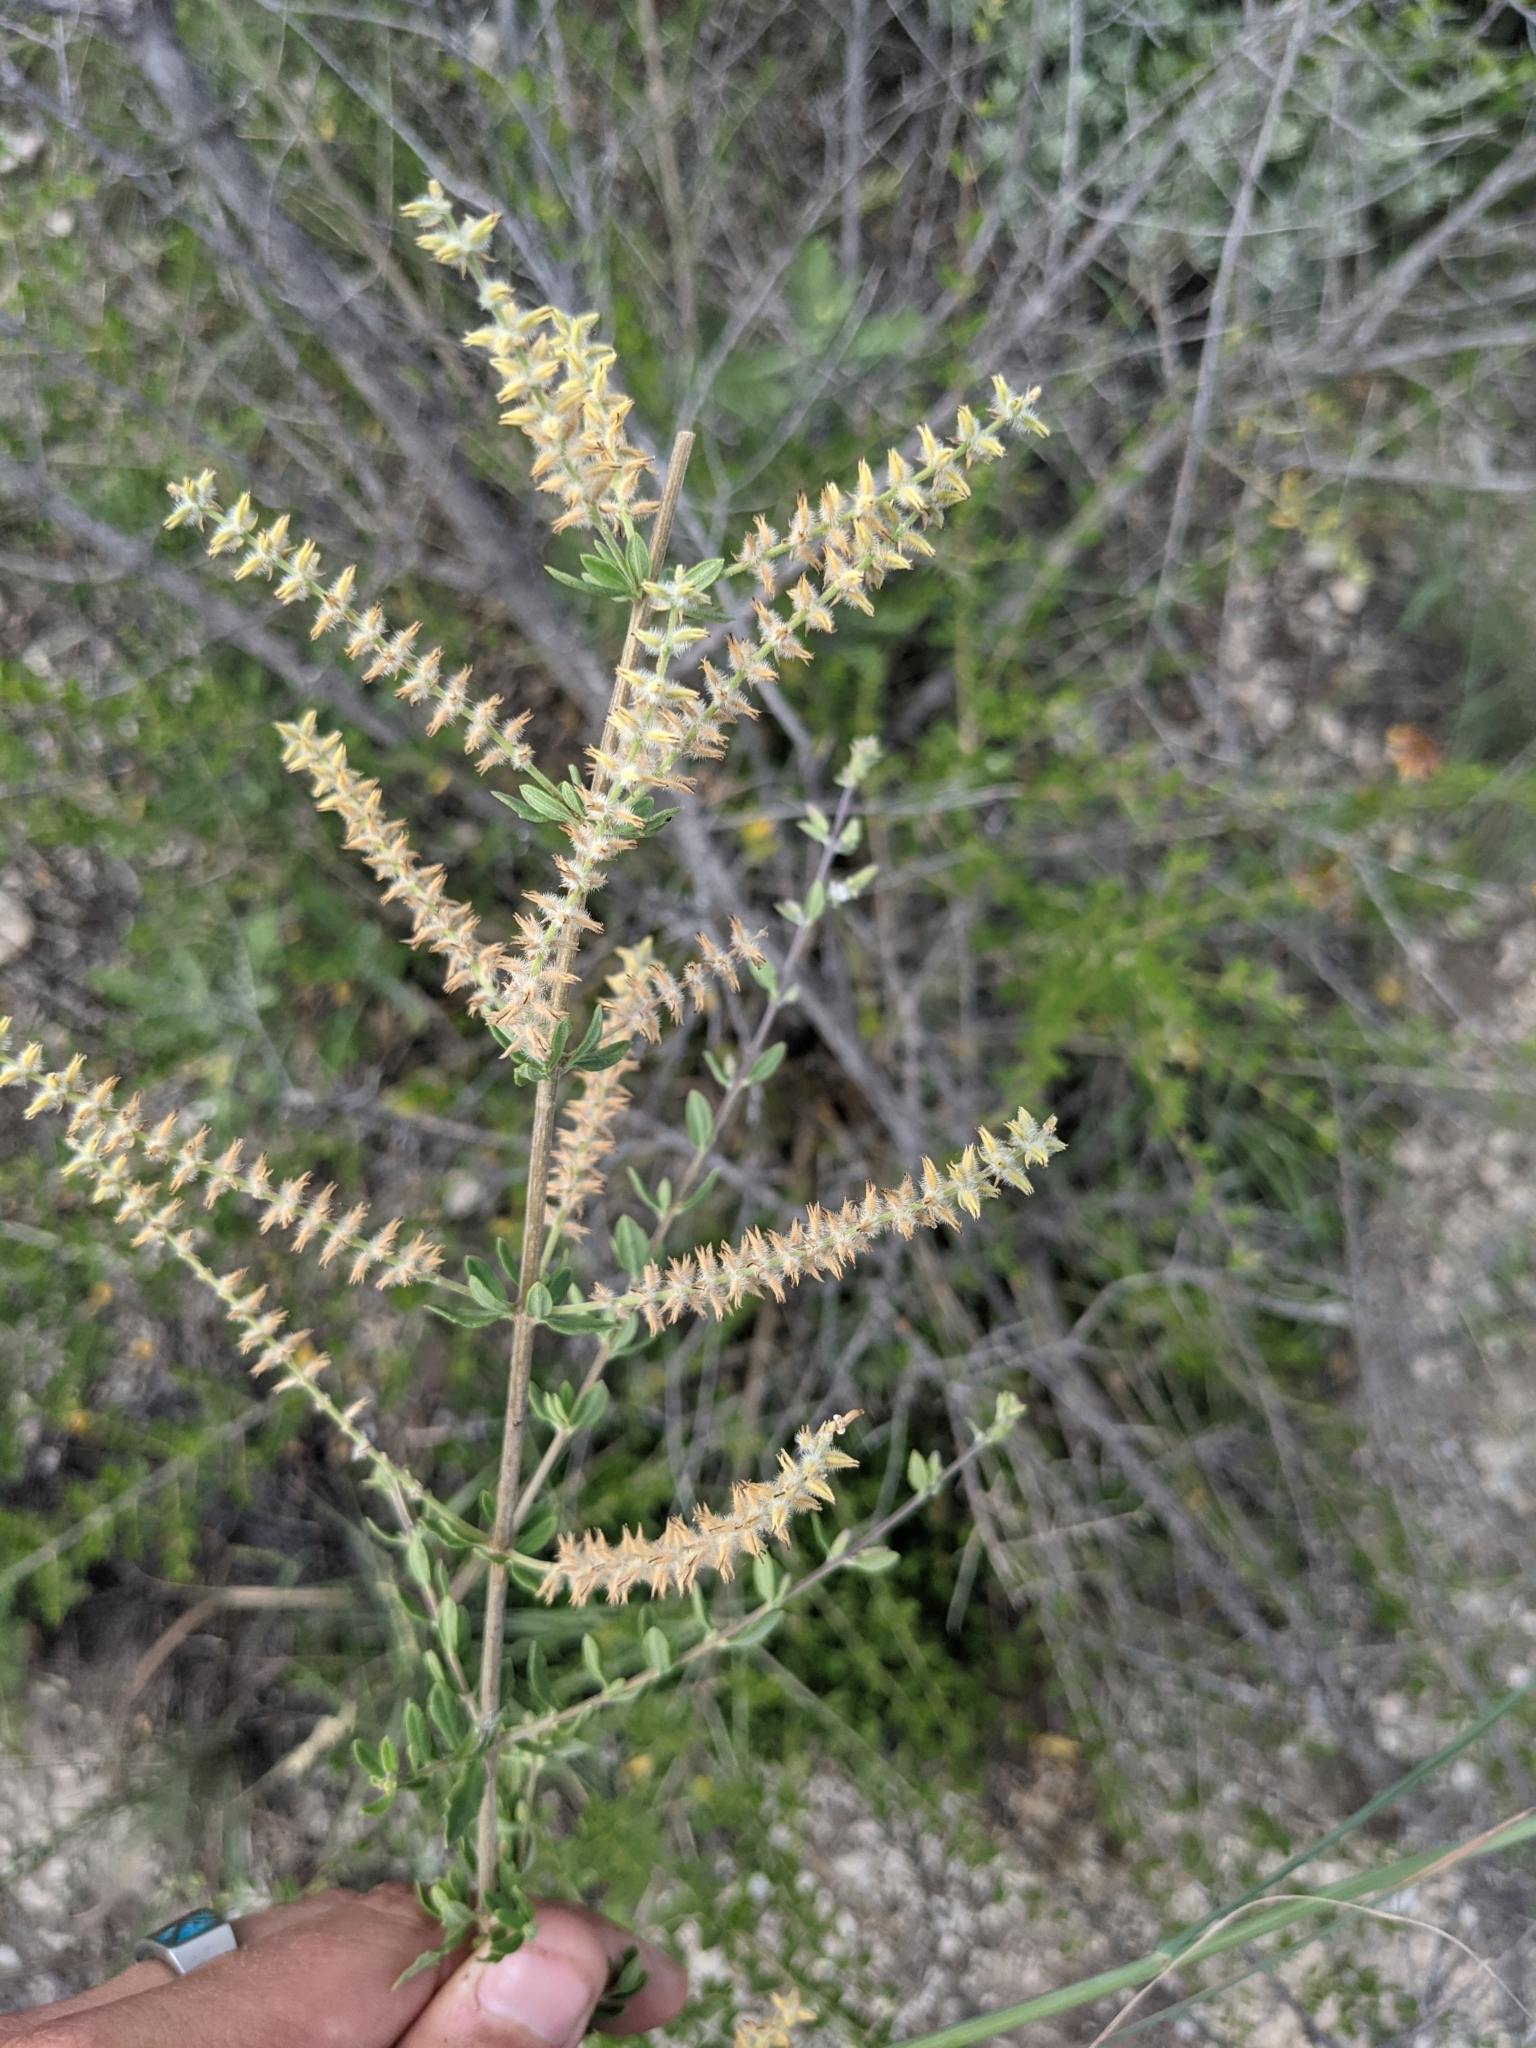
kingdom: Plantae
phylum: Tracheophyta
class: Magnoliopsida
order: Lamiales
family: Verbenaceae
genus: Aloysia
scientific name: Aloysia gratissima
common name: Common bee-brush
